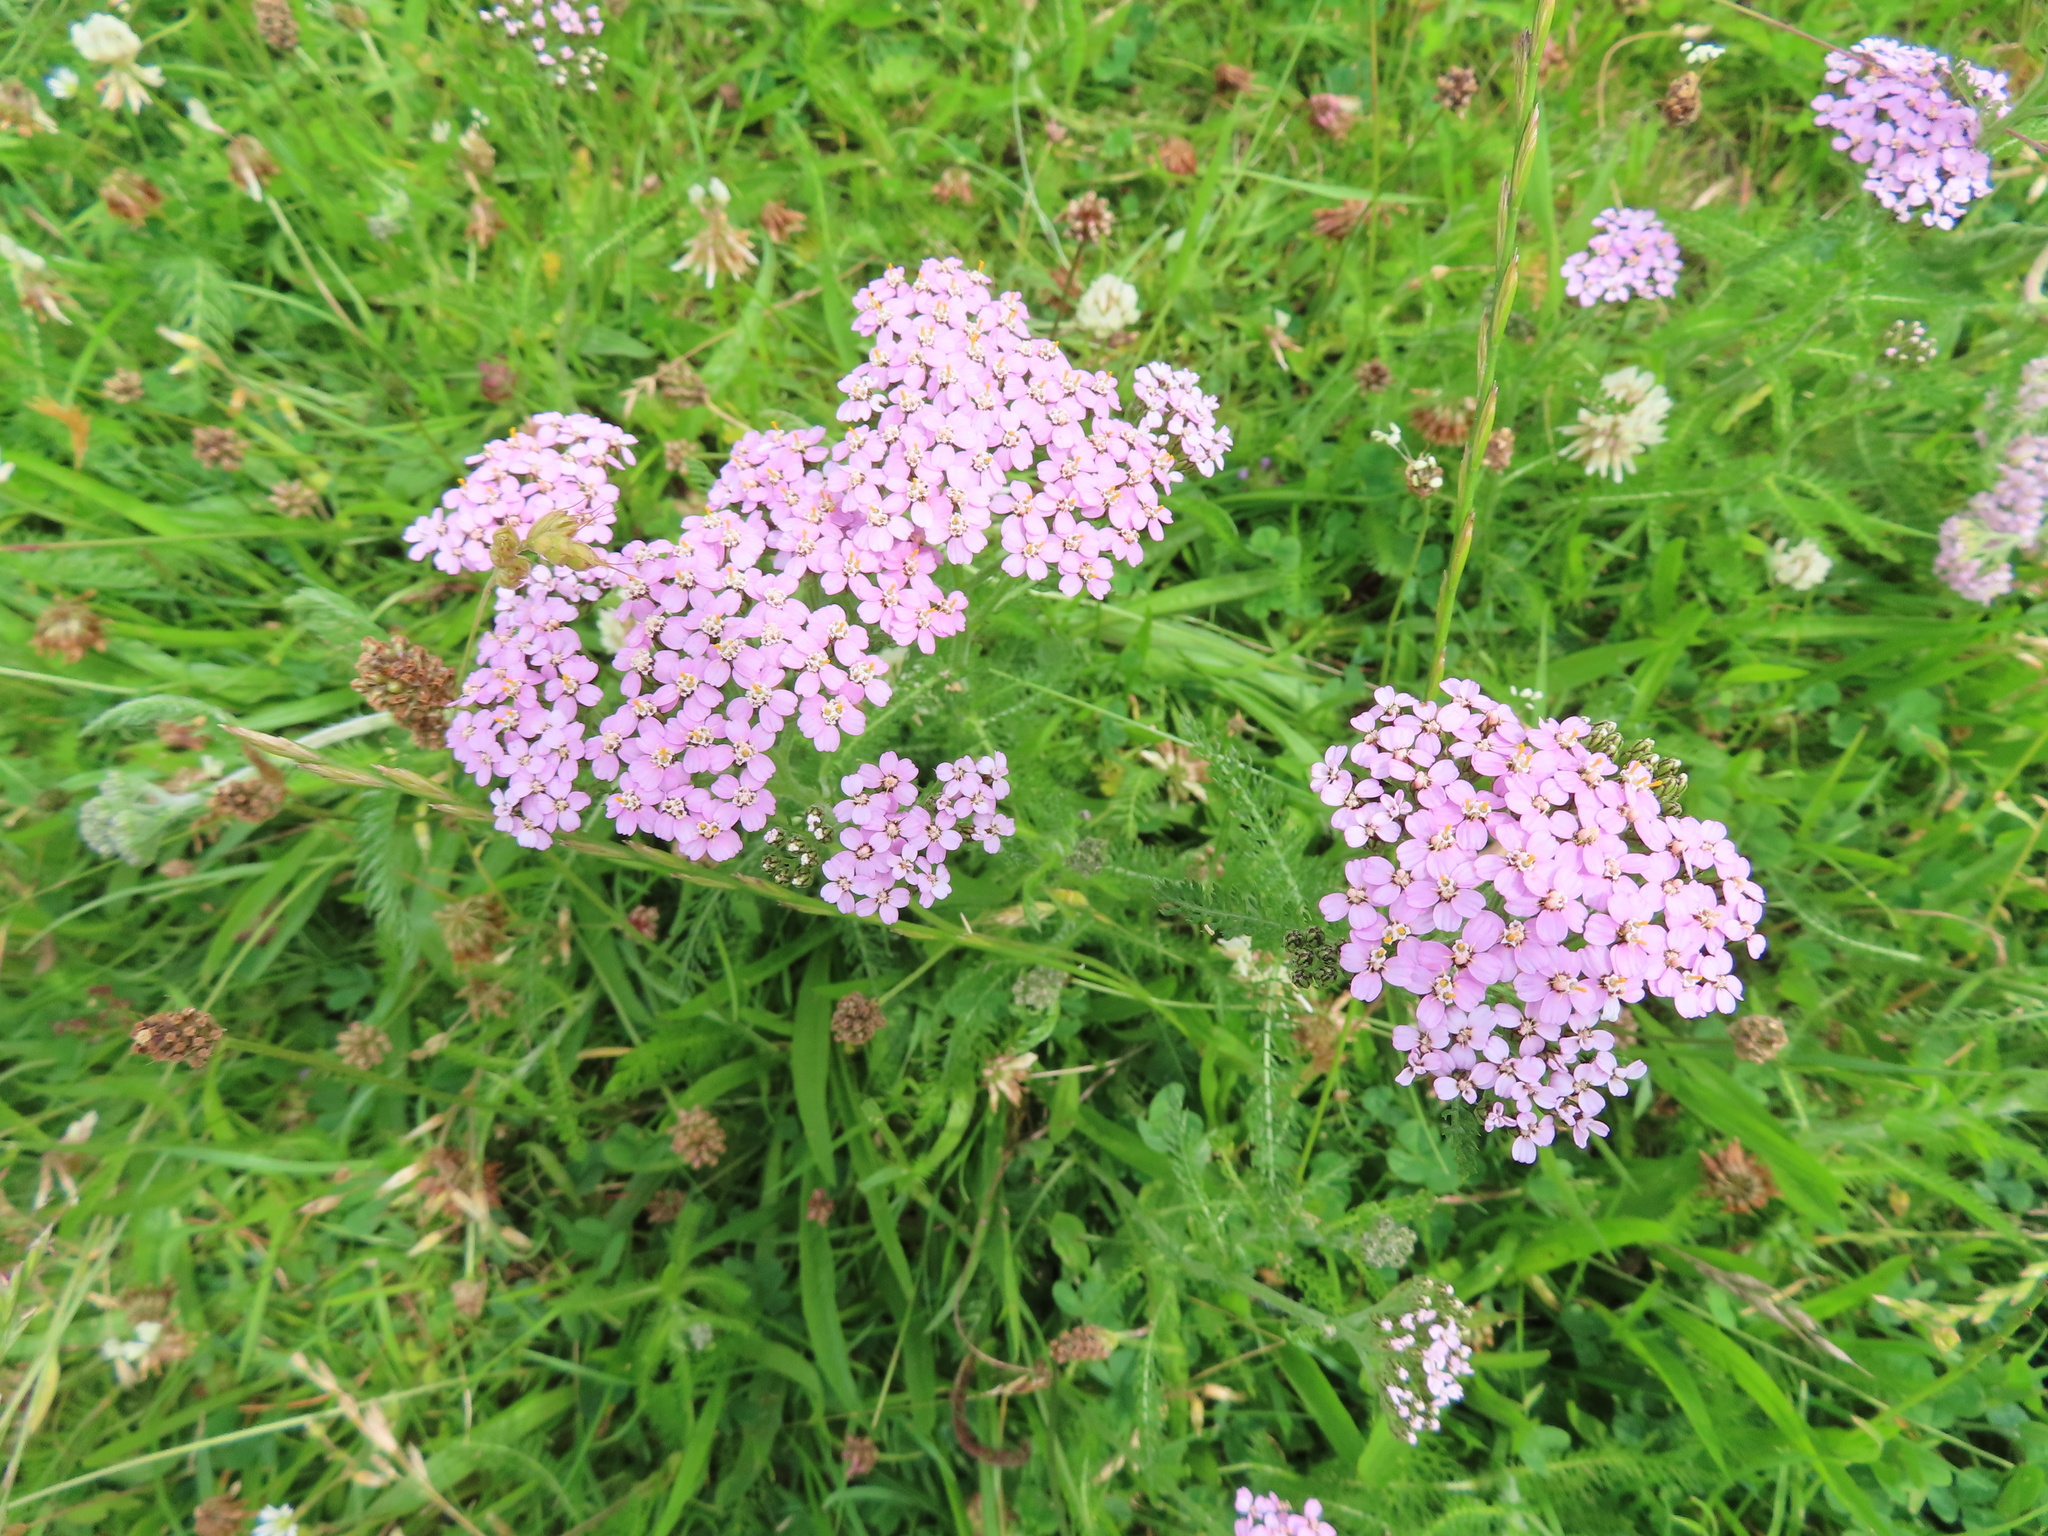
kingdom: Plantae
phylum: Tracheophyta
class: Magnoliopsida
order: Asterales
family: Asteraceae
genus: Achillea
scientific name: Achillea millefolium
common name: Yarrow
